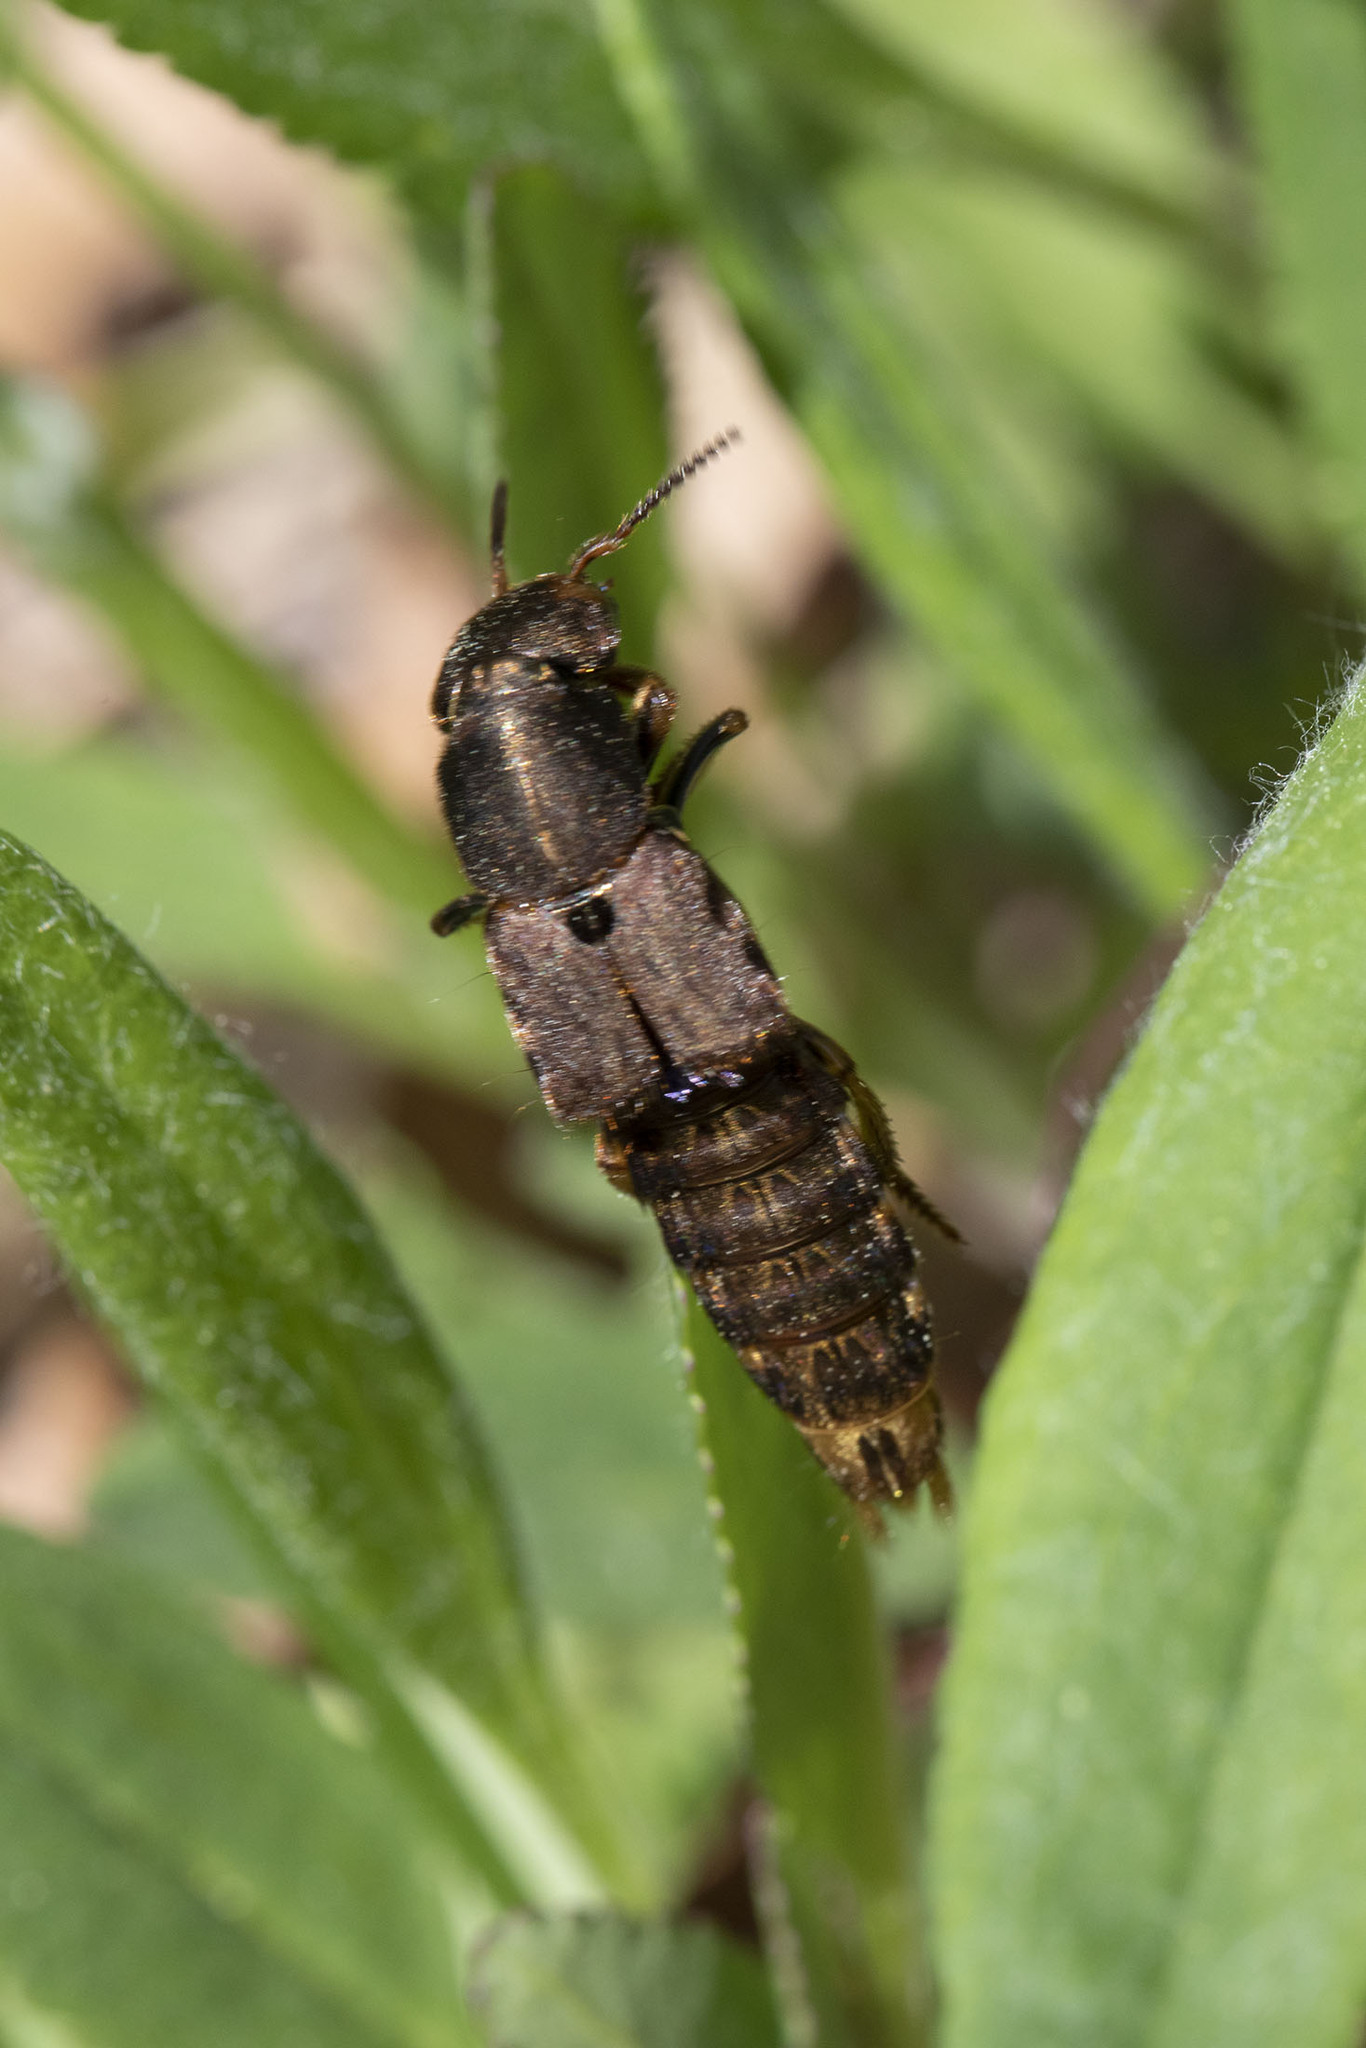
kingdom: Animalia
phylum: Arthropoda
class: Insecta
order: Coleoptera
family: Staphylinidae
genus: Platydracus
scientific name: Platydracus maculosus
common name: Brown rove beetle
